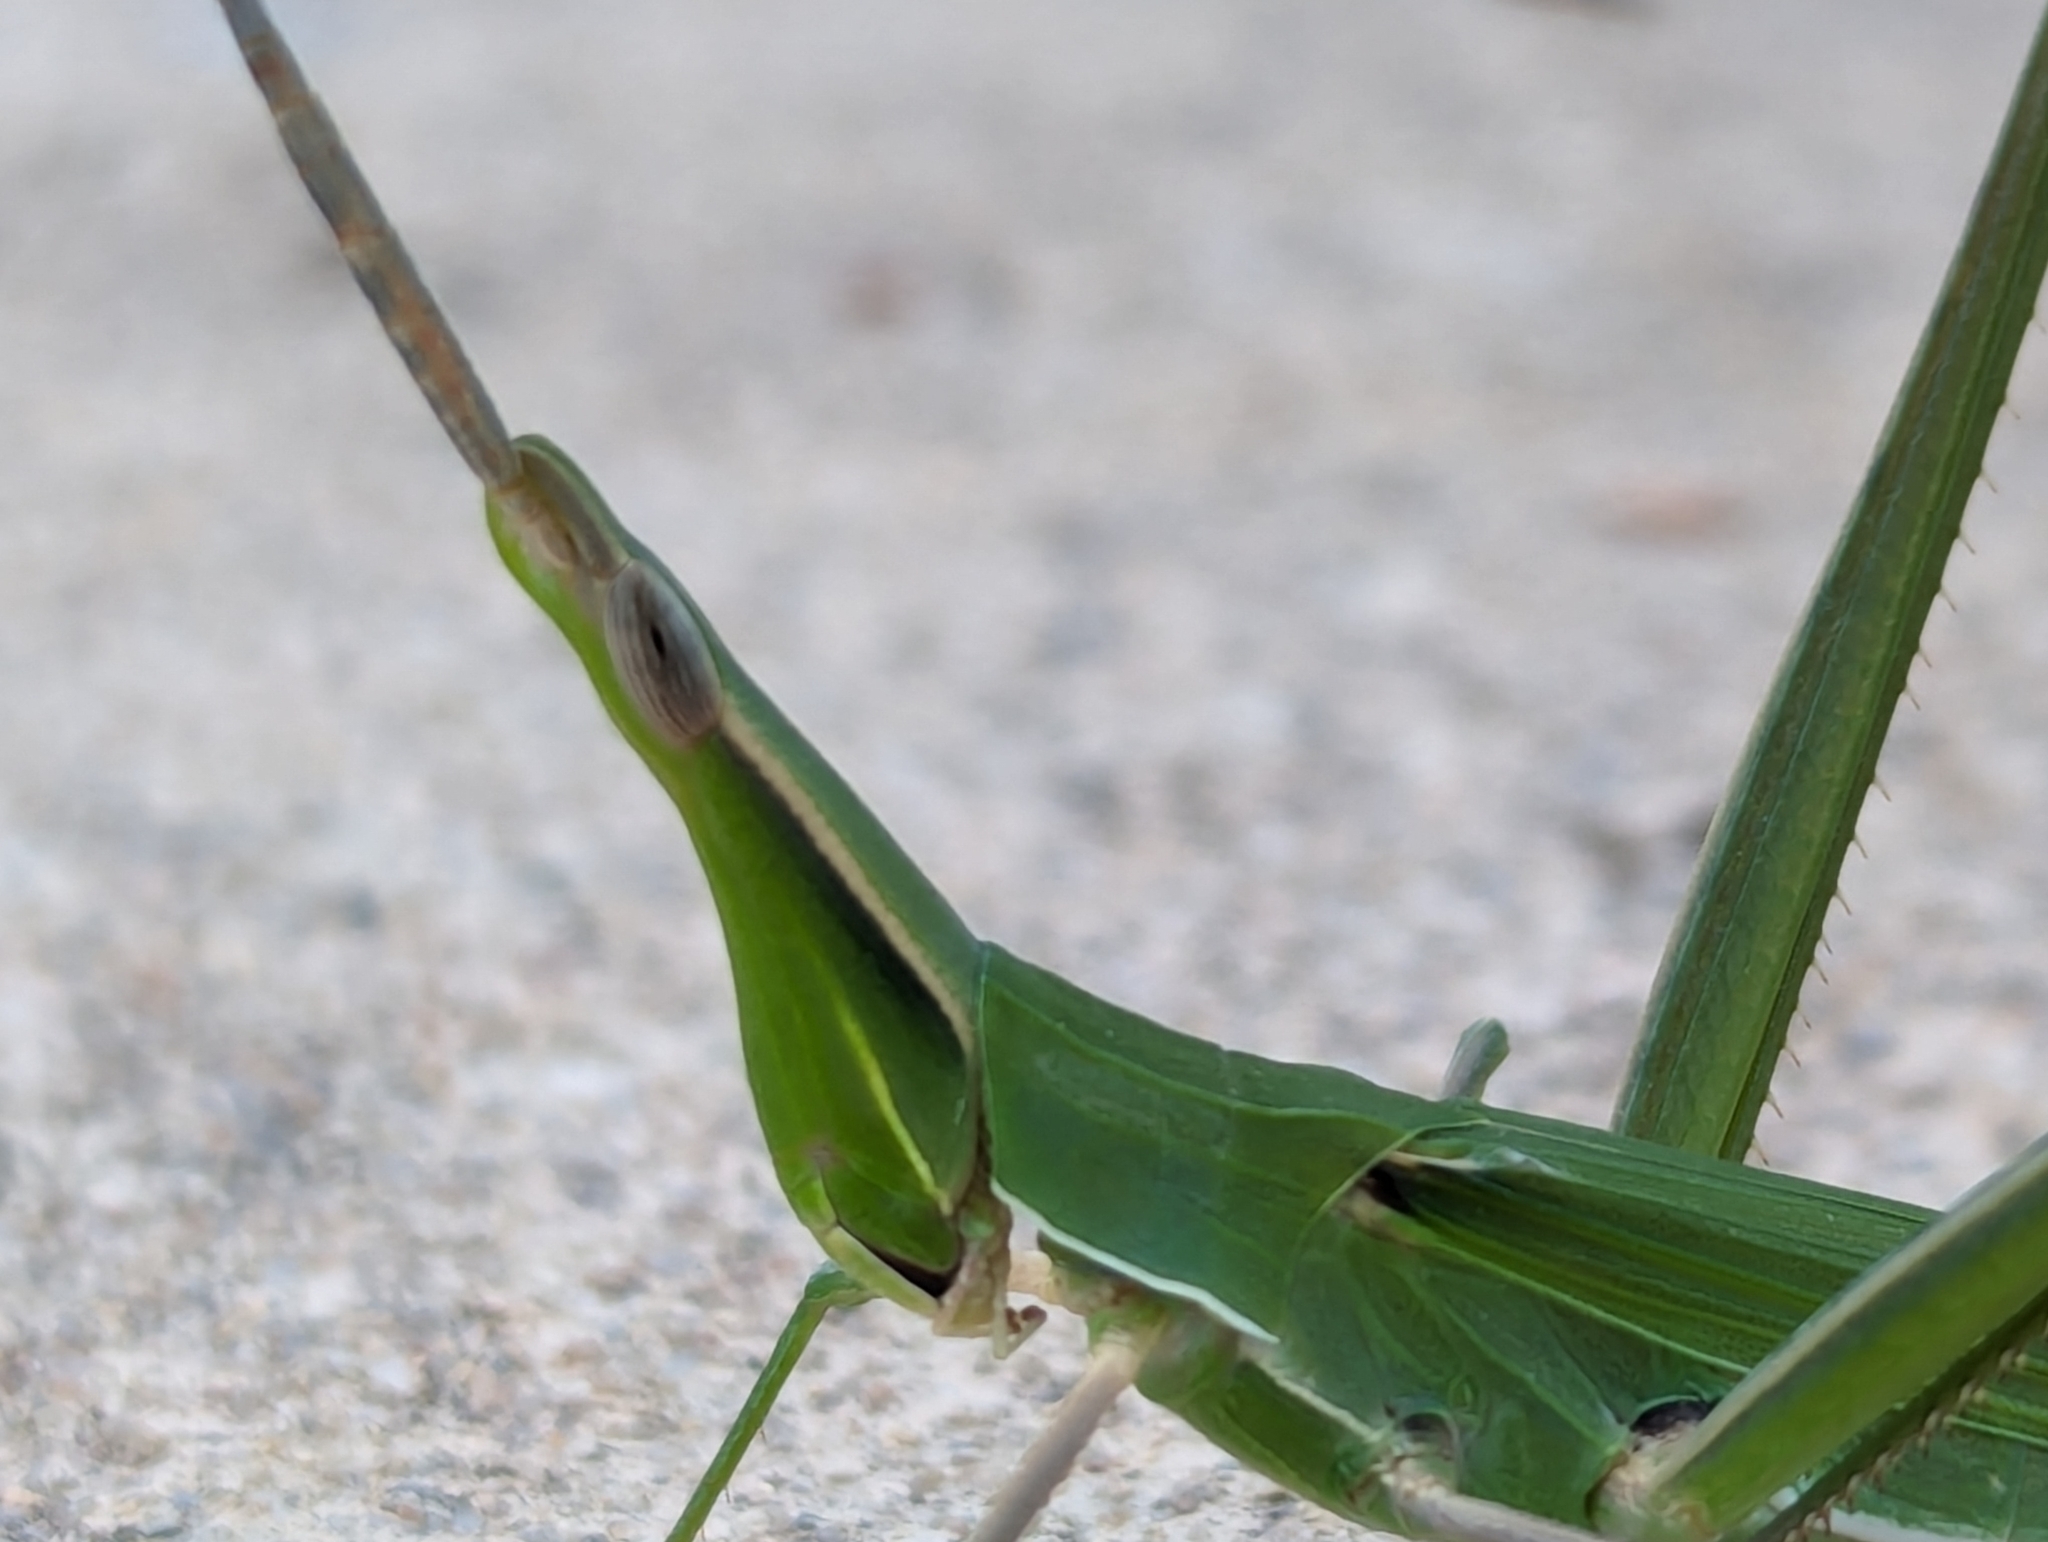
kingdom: Animalia
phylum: Arthropoda
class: Insecta
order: Orthoptera
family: Acrididae
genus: Acrida
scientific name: Acrida conica
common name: Giant green slantface
